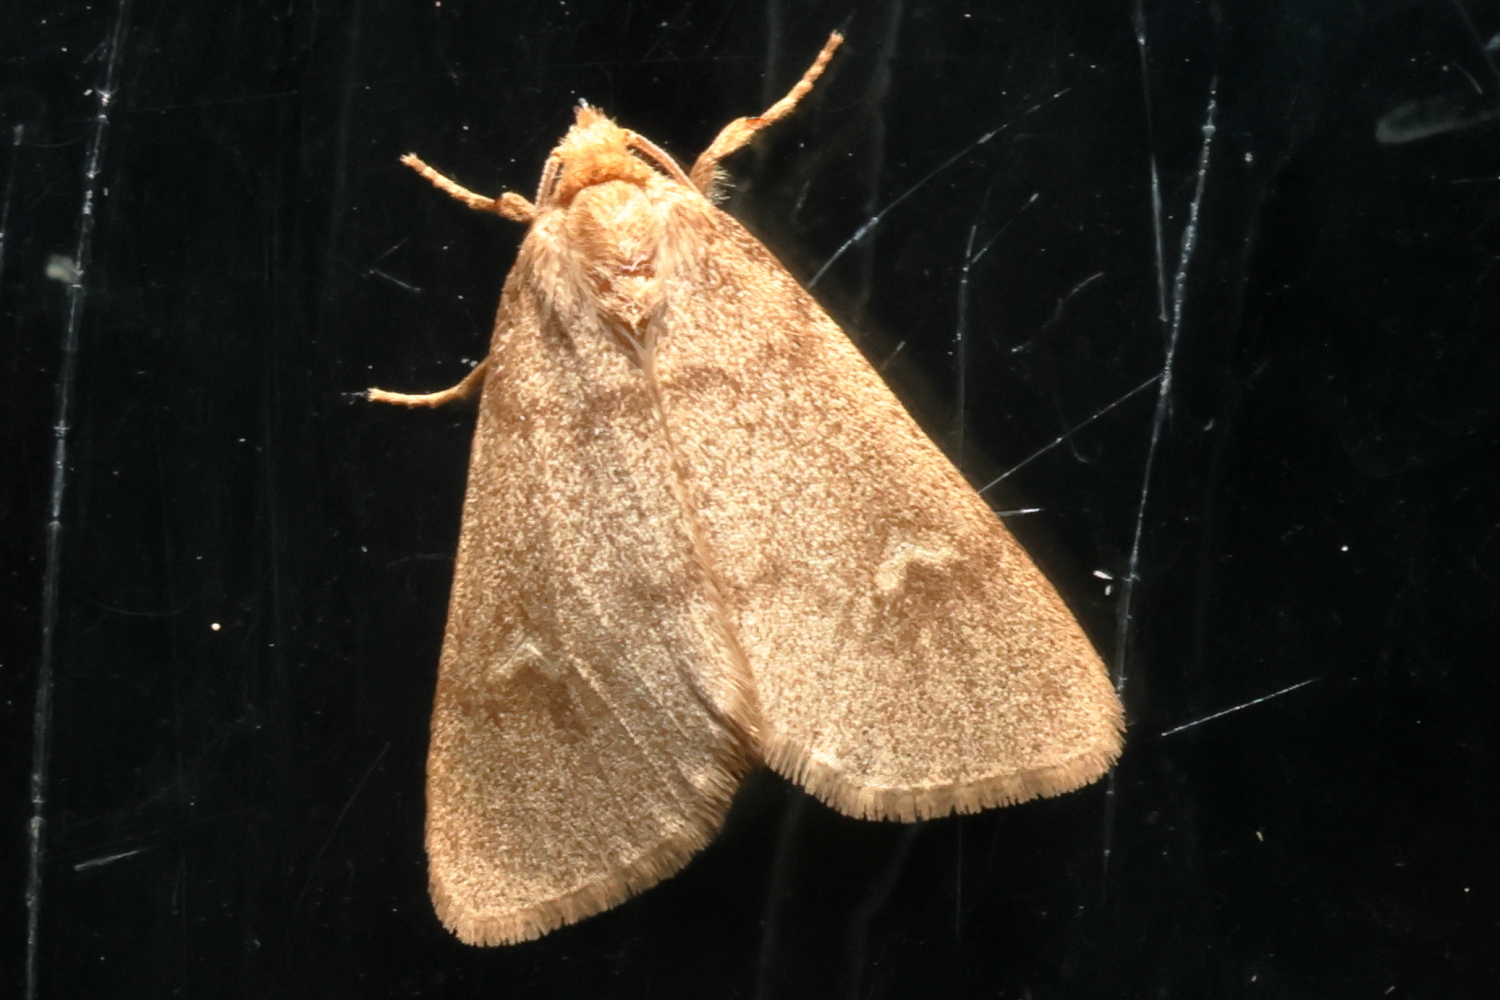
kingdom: Animalia
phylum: Arthropoda
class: Insecta
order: Lepidoptera
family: Noctuidae
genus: Narthecophora
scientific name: Narthecophora pulverea
